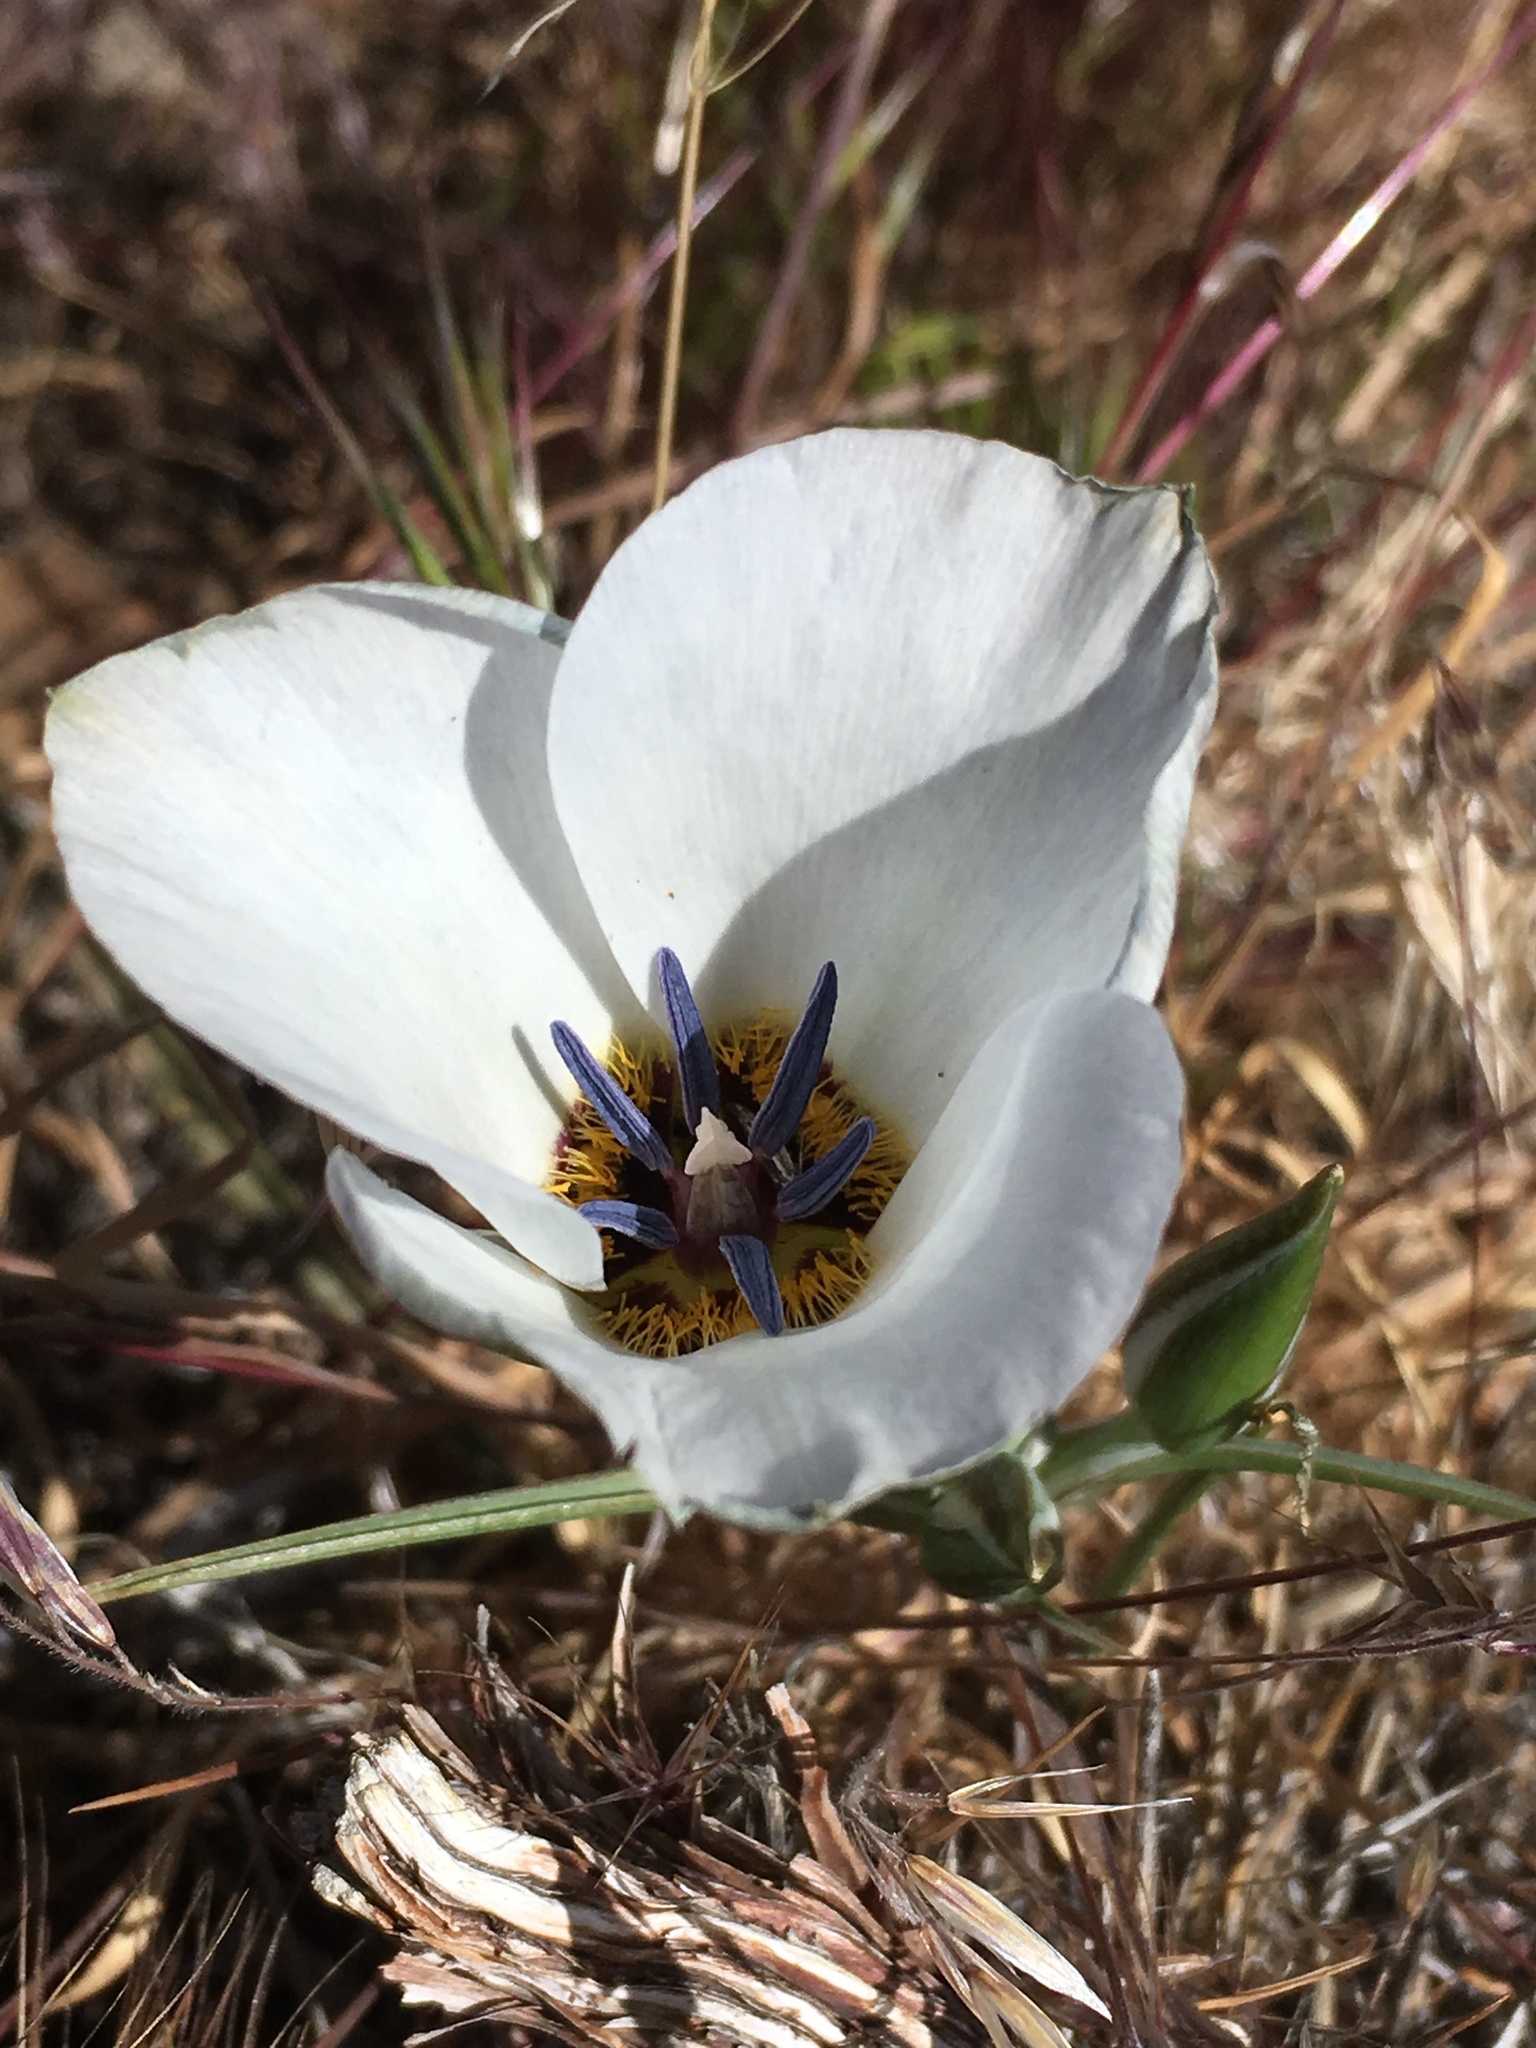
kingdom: Plantae
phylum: Tracheophyta
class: Liliopsida
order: Liliales
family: Liliaceae
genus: Calochortus
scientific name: Calochortus invenustus
